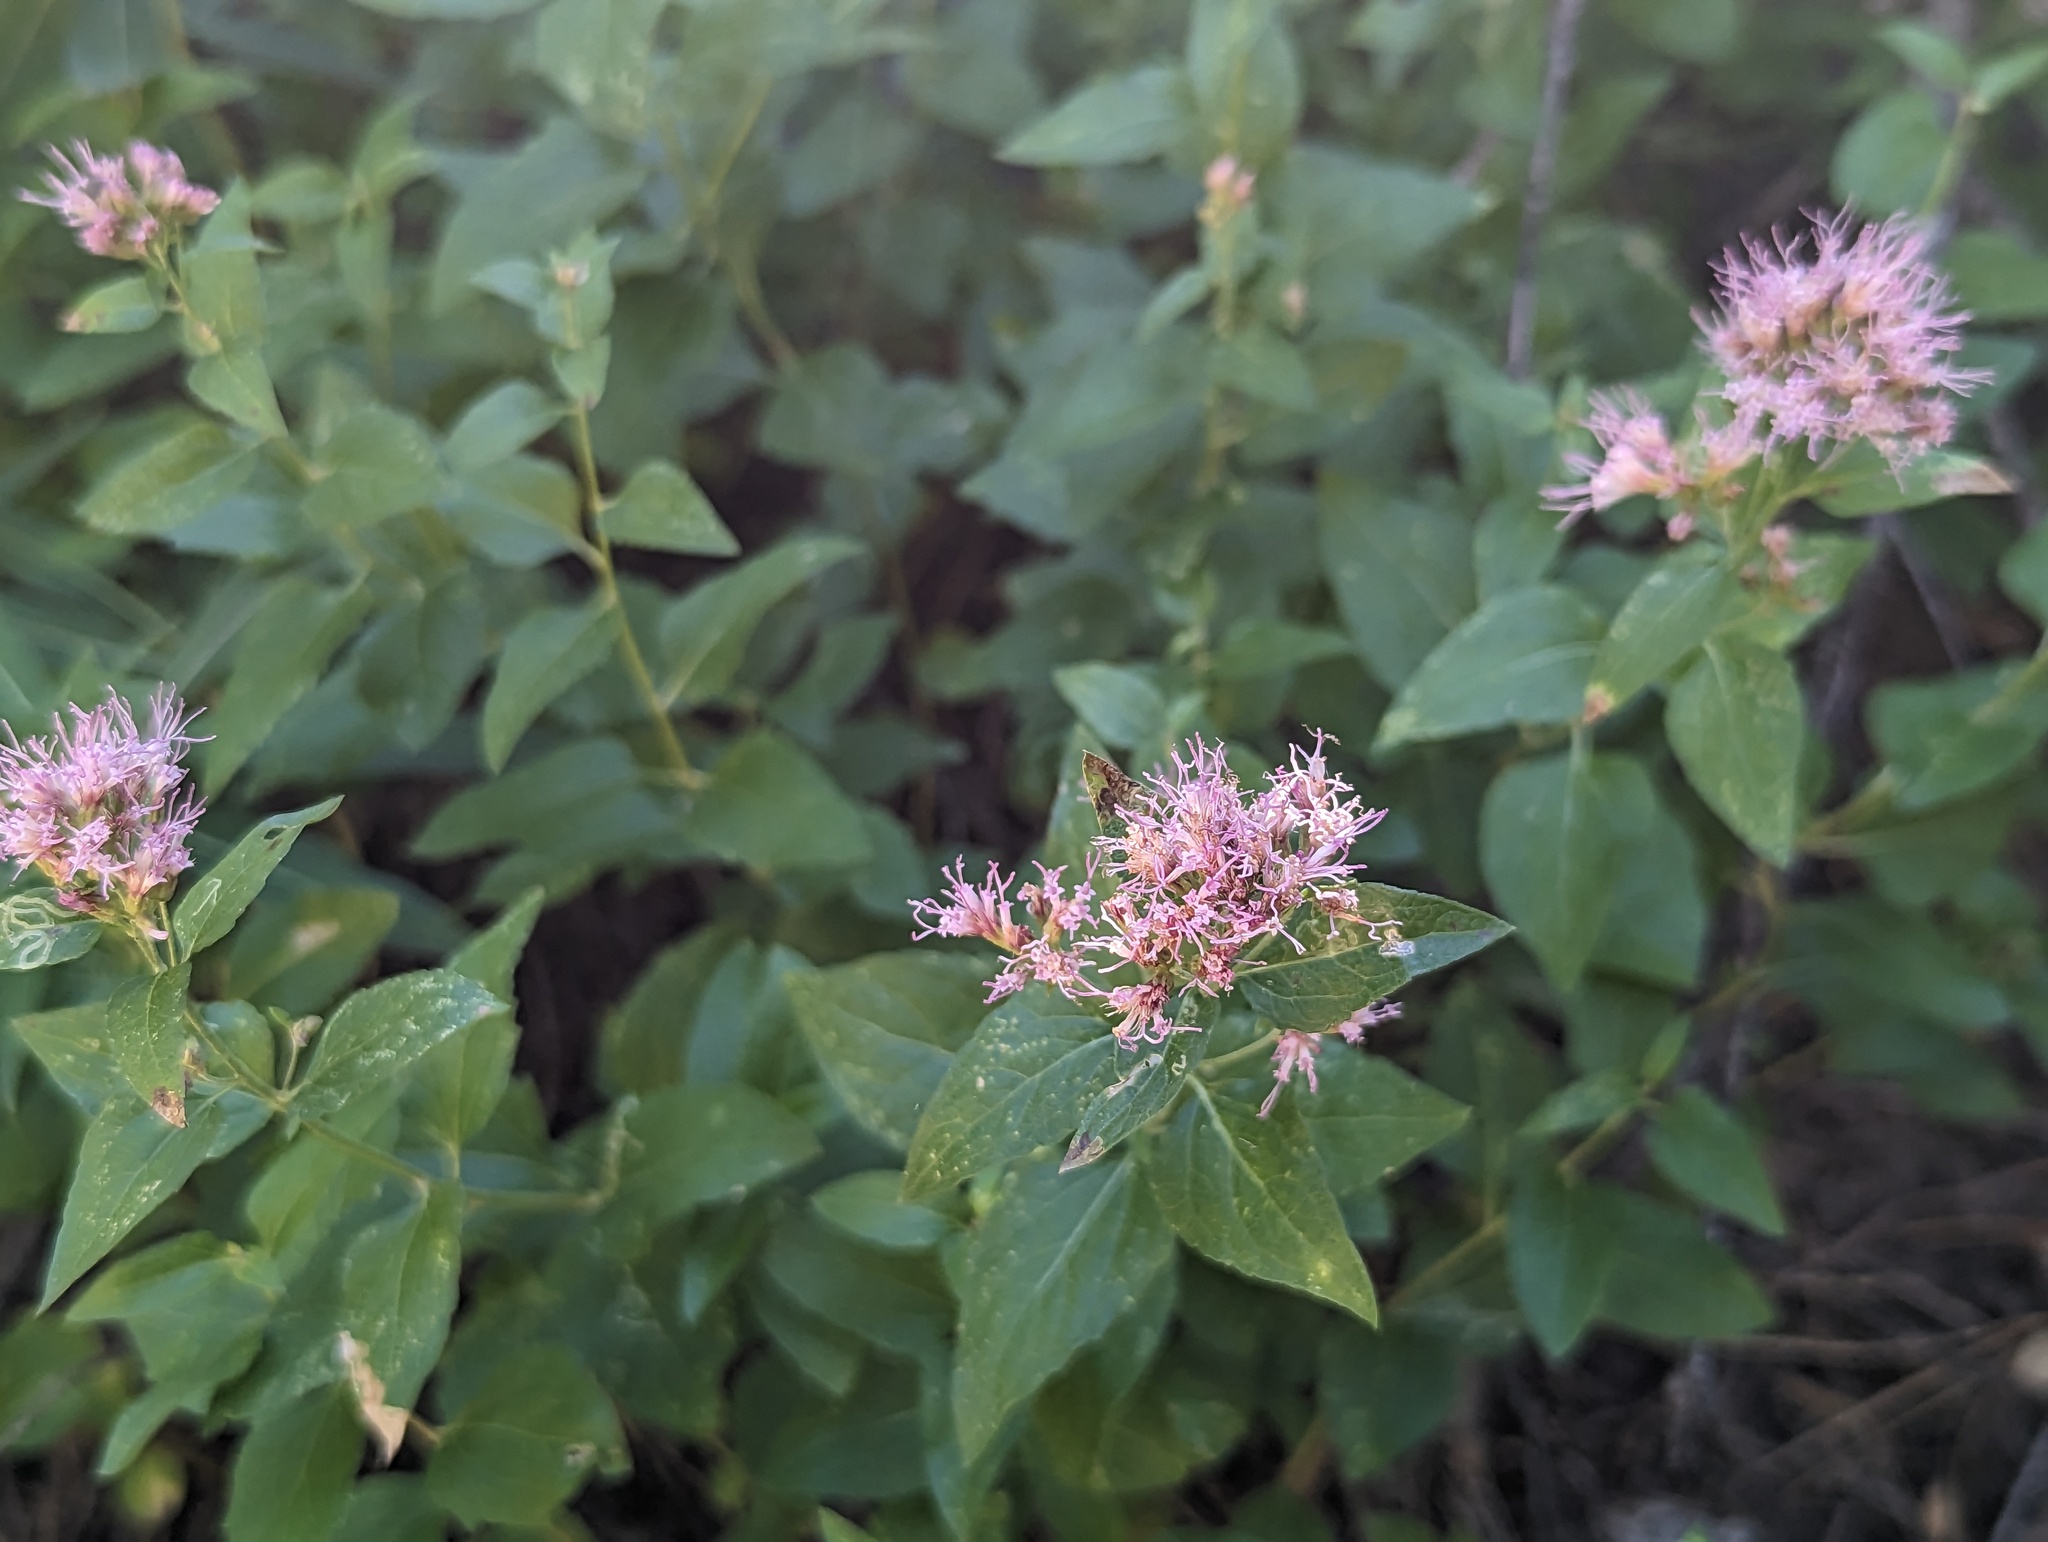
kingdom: Plantae
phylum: Tracheophyta
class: Magnoliopsida
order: Asterales
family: Asteraceae
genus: Ageratina
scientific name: Ageratina occidentalis
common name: Western snakeroot
